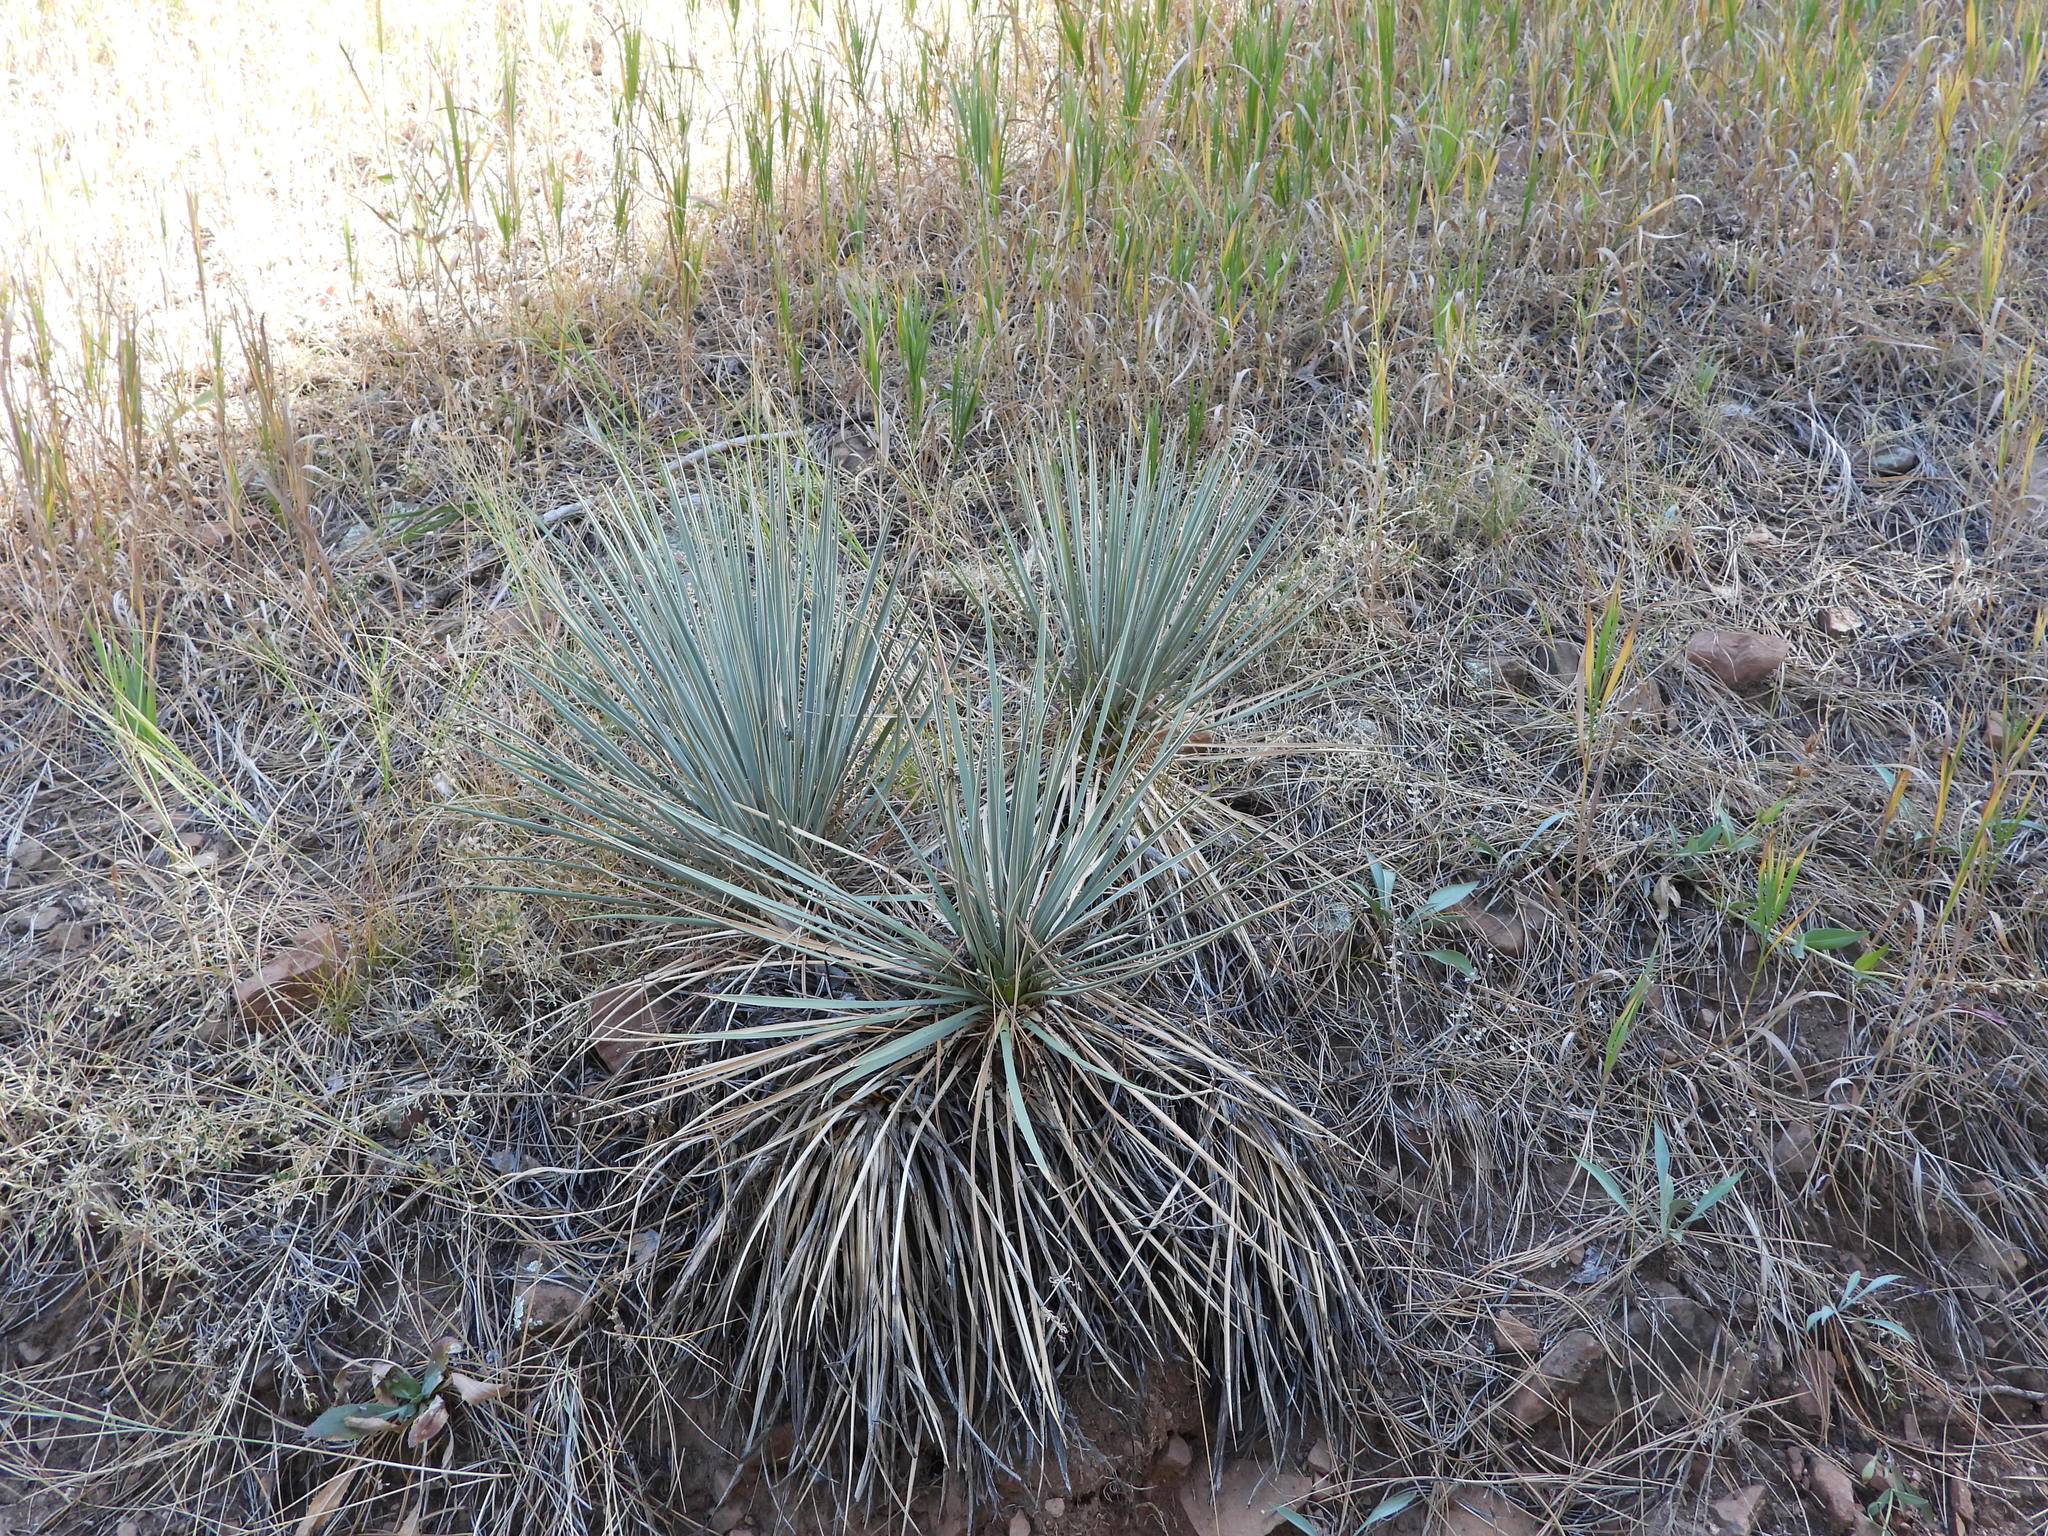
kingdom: Plantae
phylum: Tracheophyta
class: Liliopsida
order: Asparagales
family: Asparagaceae
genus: Yucca
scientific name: Yucca glauca
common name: Great plains yucca
